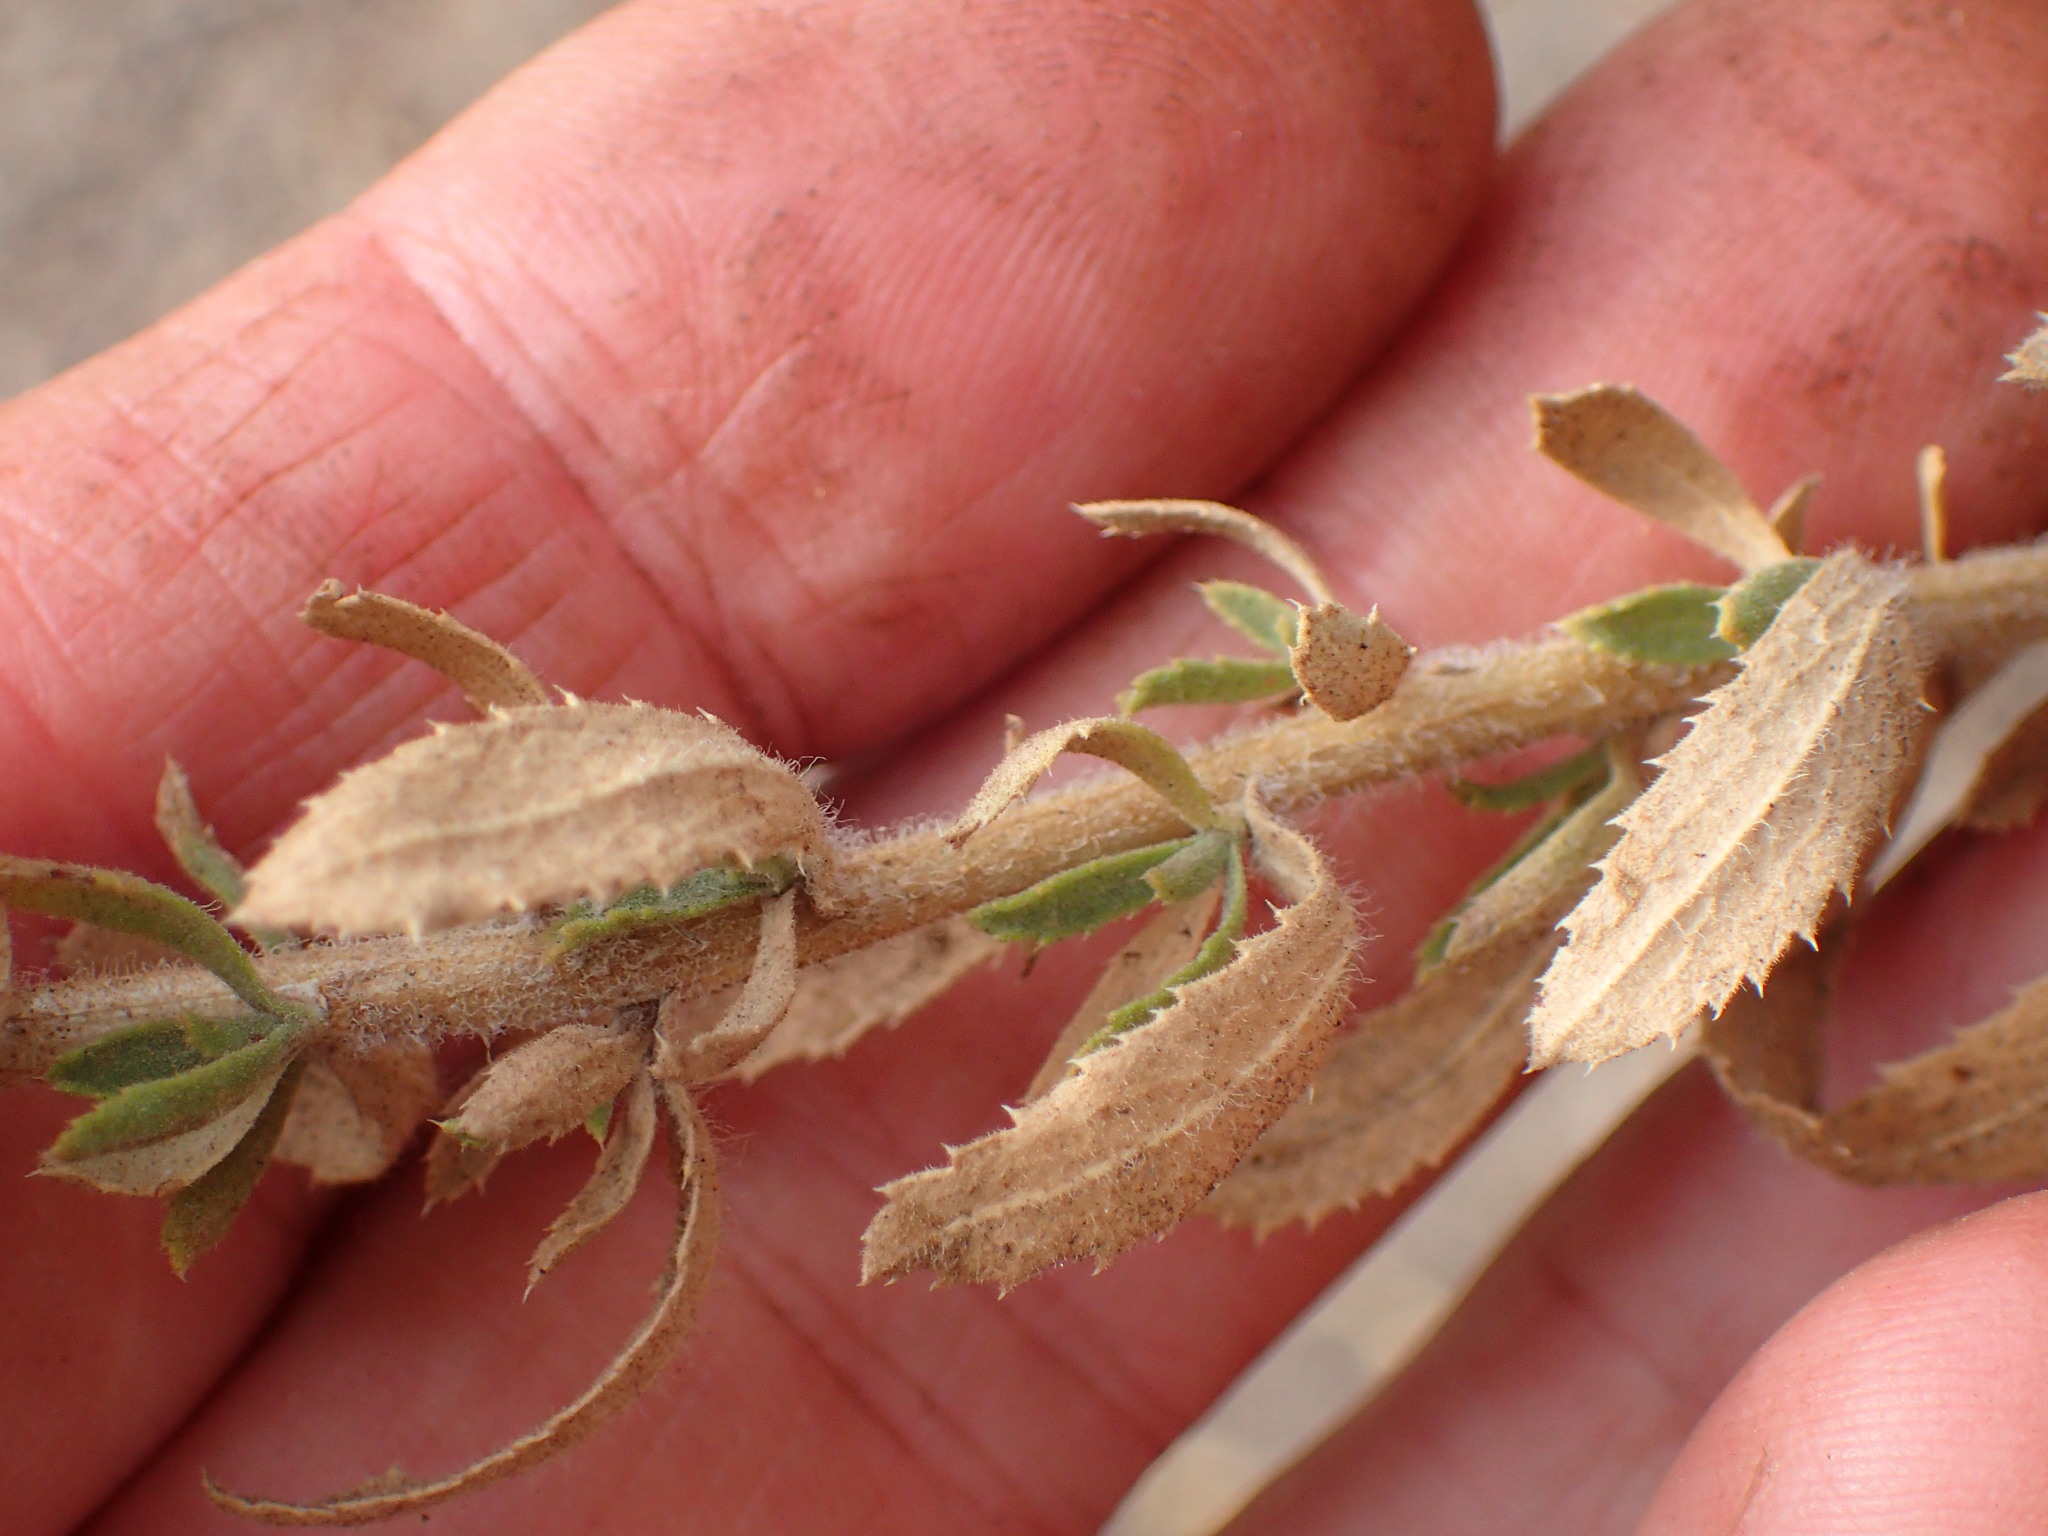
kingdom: Plantae
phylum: Tracheophyta
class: Magnoliopsida
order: Asterales
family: Asteraceae
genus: Isocoma
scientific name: Isocoma menziesii
